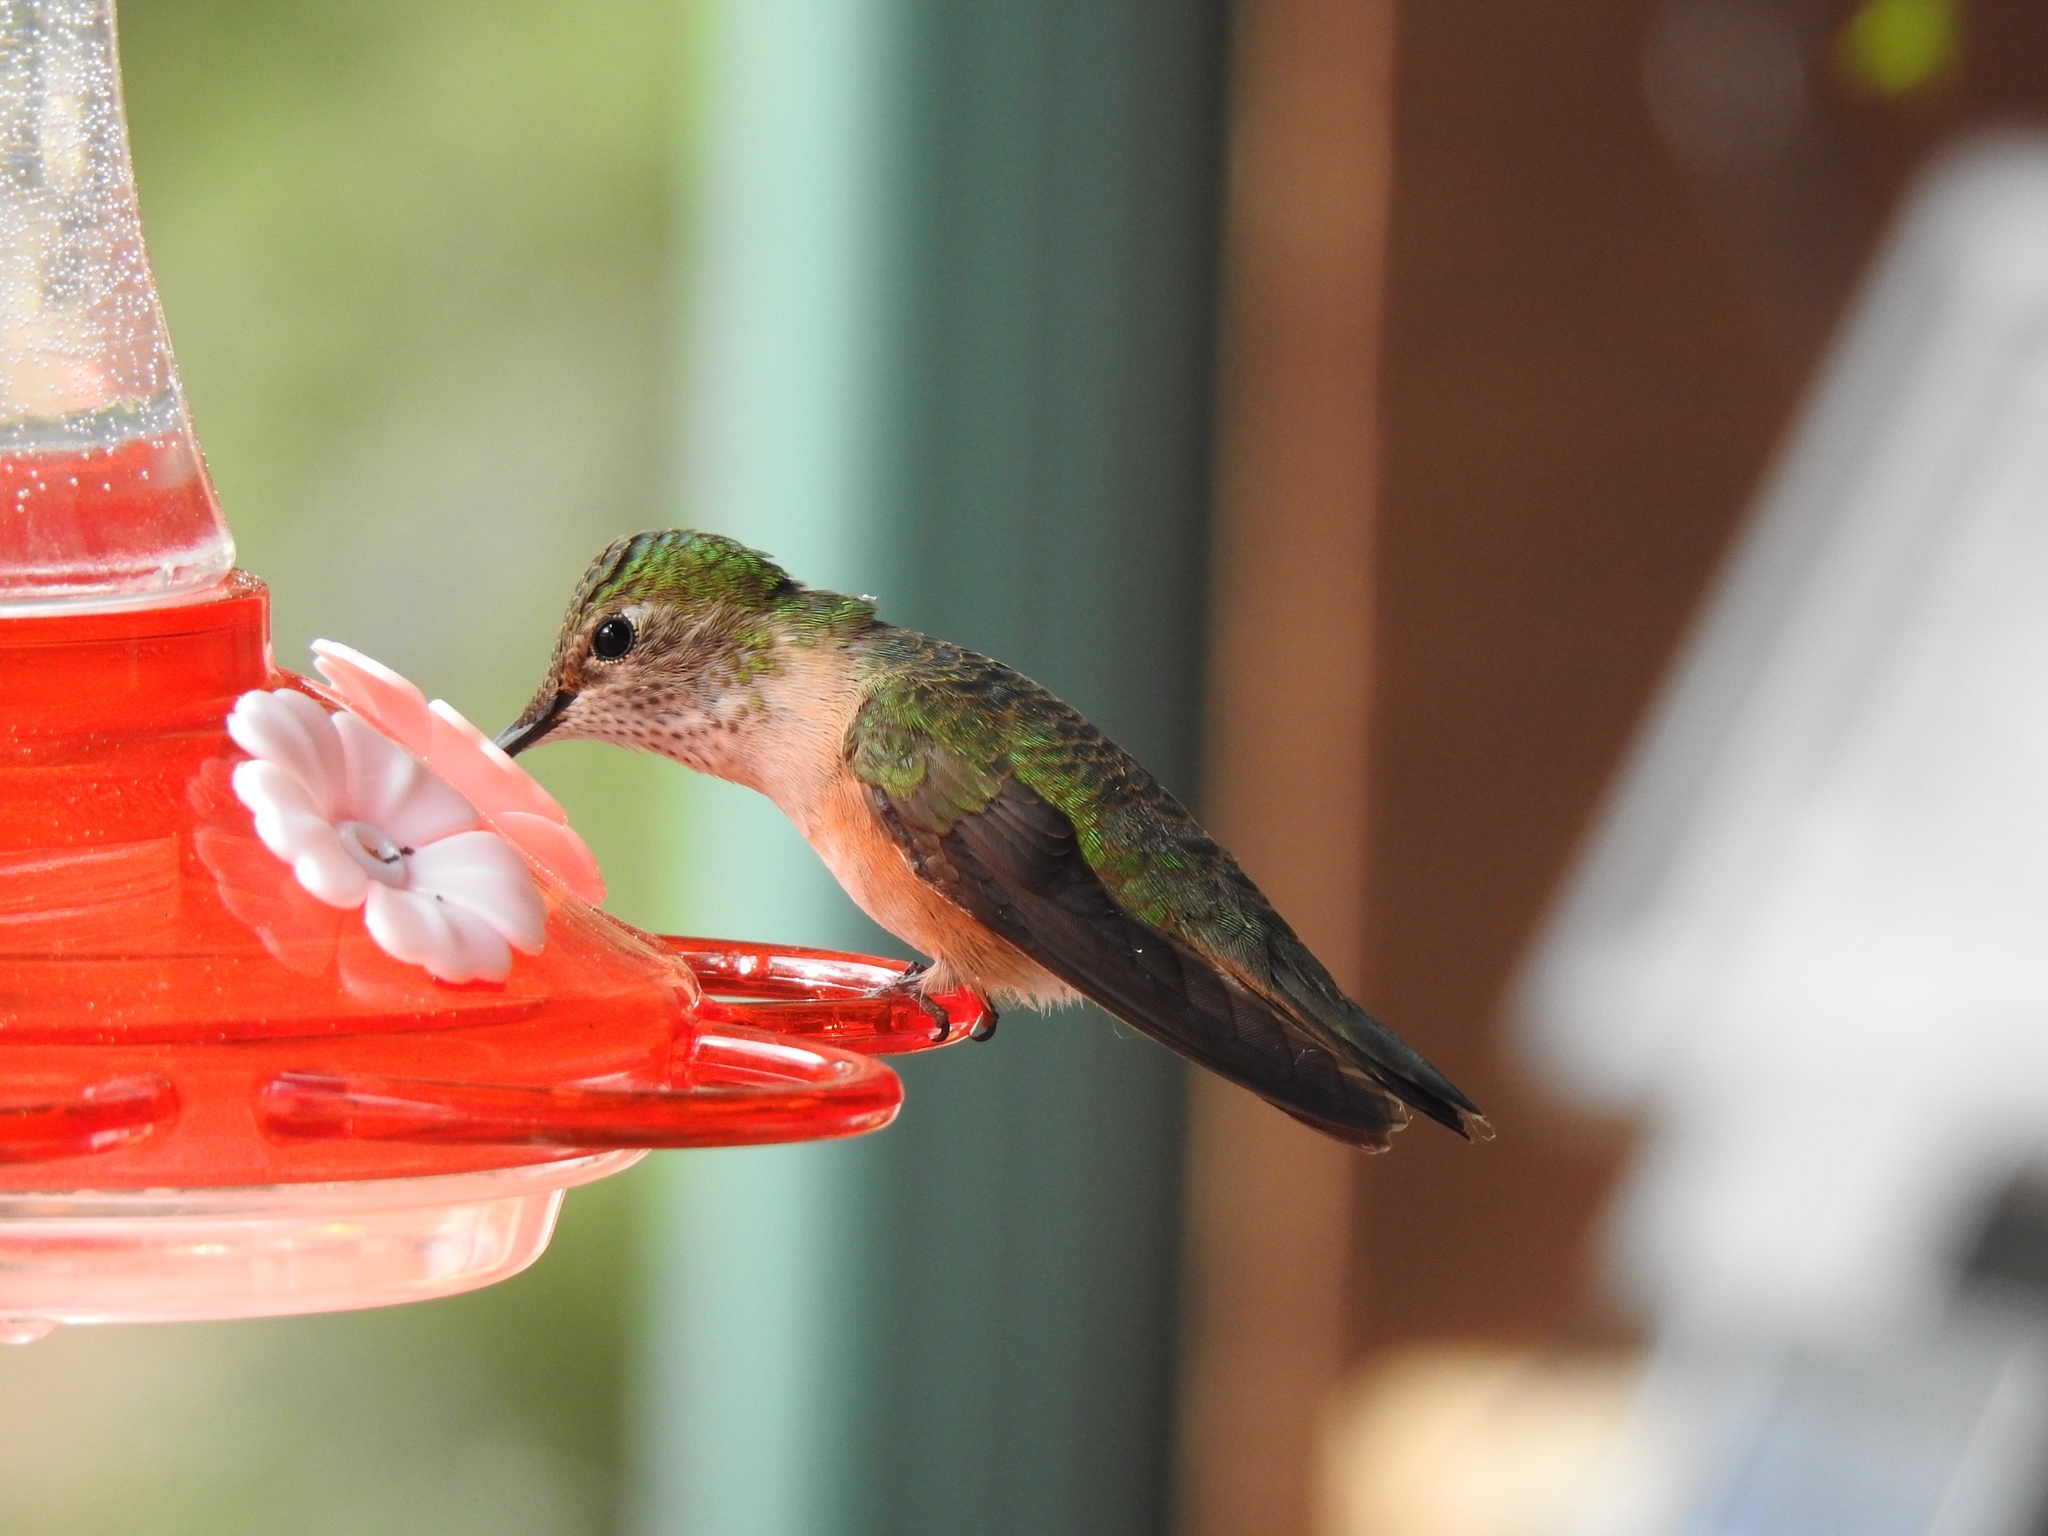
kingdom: Animalia
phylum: Chordata
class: Aves
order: Apodiformes
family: Trochilidae
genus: Selasphorus
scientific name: Selasphorus platycercus
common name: Broad-tailed hummingbird
